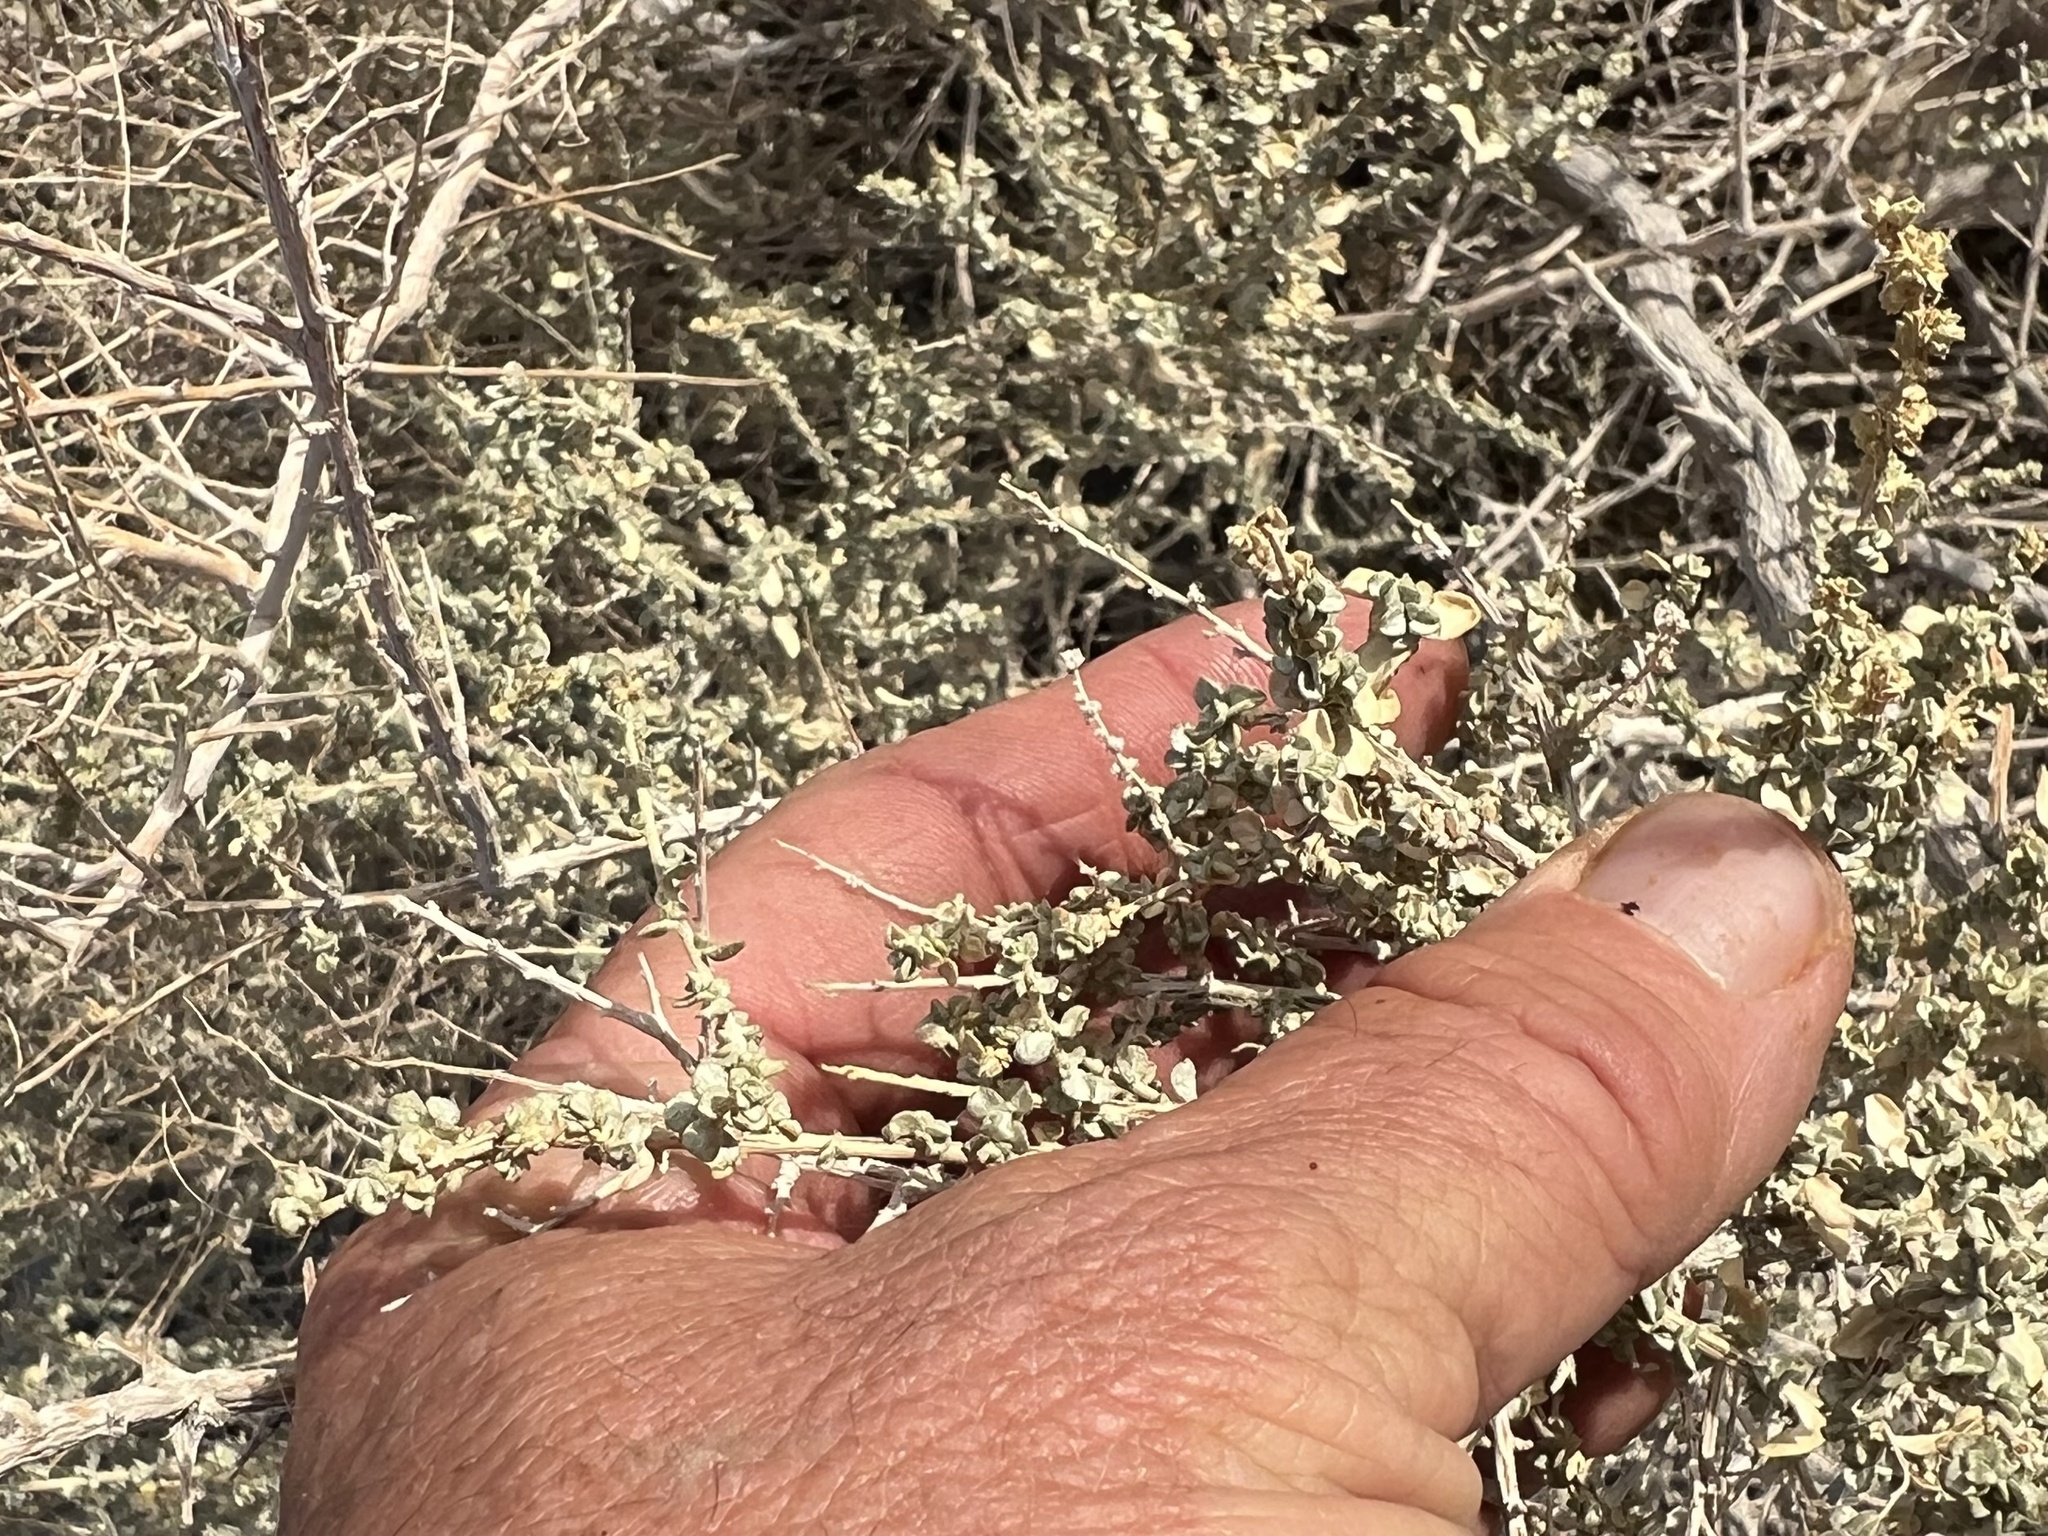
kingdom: Plantae
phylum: Tracheophyta
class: Magnoliopsida
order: Caryophyllales
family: Amaranthaceae
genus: Atriplex
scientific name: Atriplex polycarpa
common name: Desert saltbush
